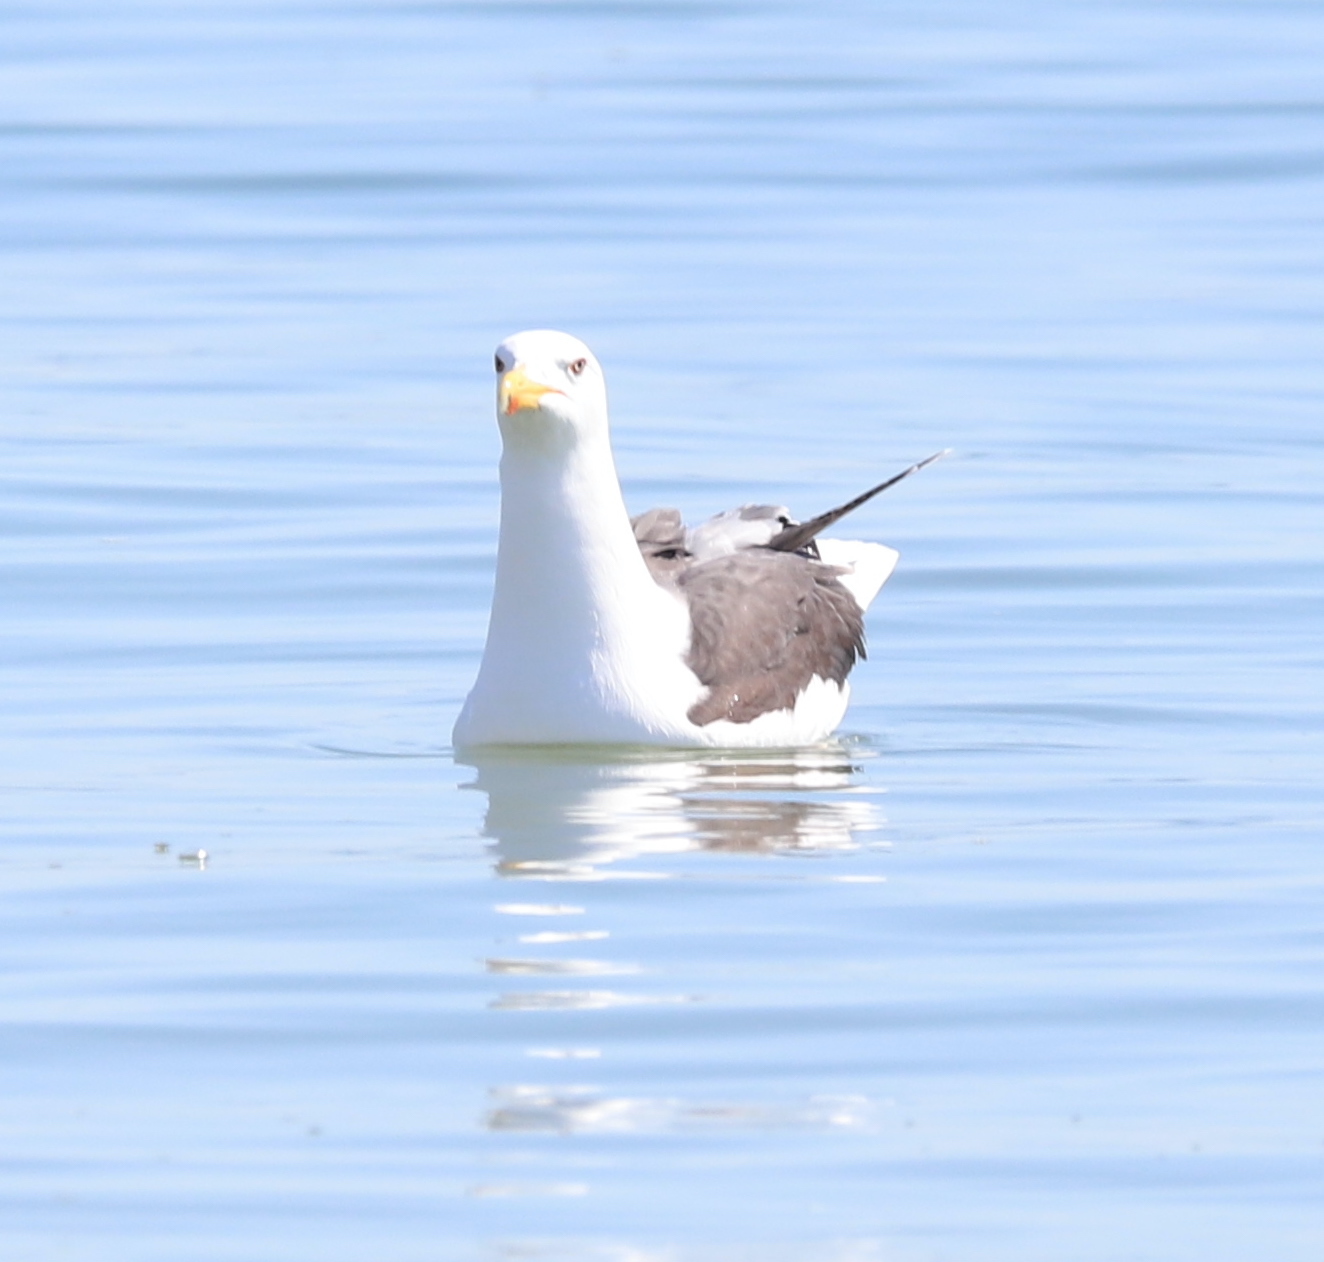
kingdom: Animalia
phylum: Chordata
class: Aves
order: Charadriiformes
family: Laridae
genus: Larus
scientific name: Larus marinus
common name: Great black-backed gull
